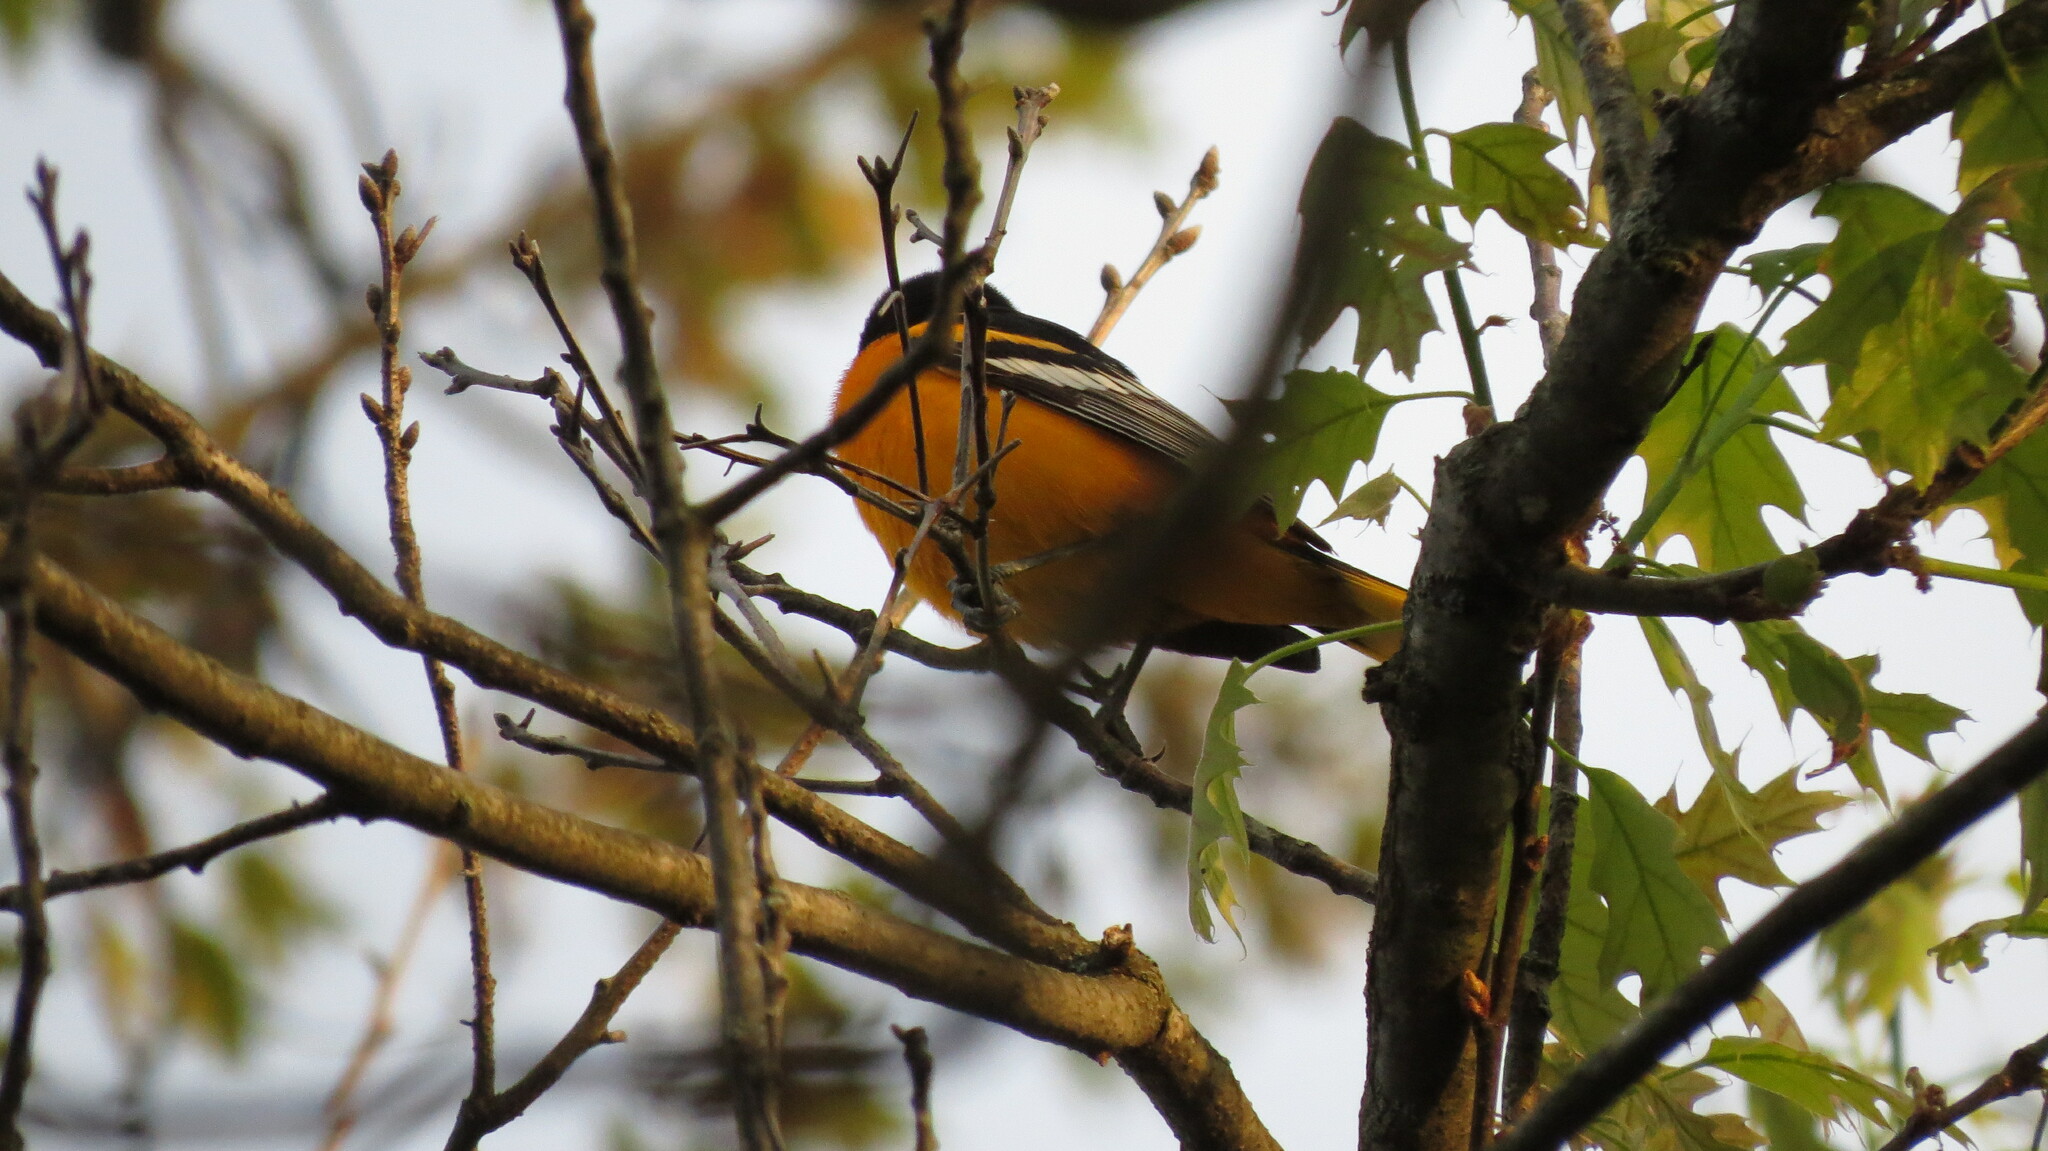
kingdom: Animalia
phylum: Chordata
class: Aves
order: Passeriformes
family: Icteridae
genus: Icterus
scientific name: Icterus galbula
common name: Baltimore oriole
